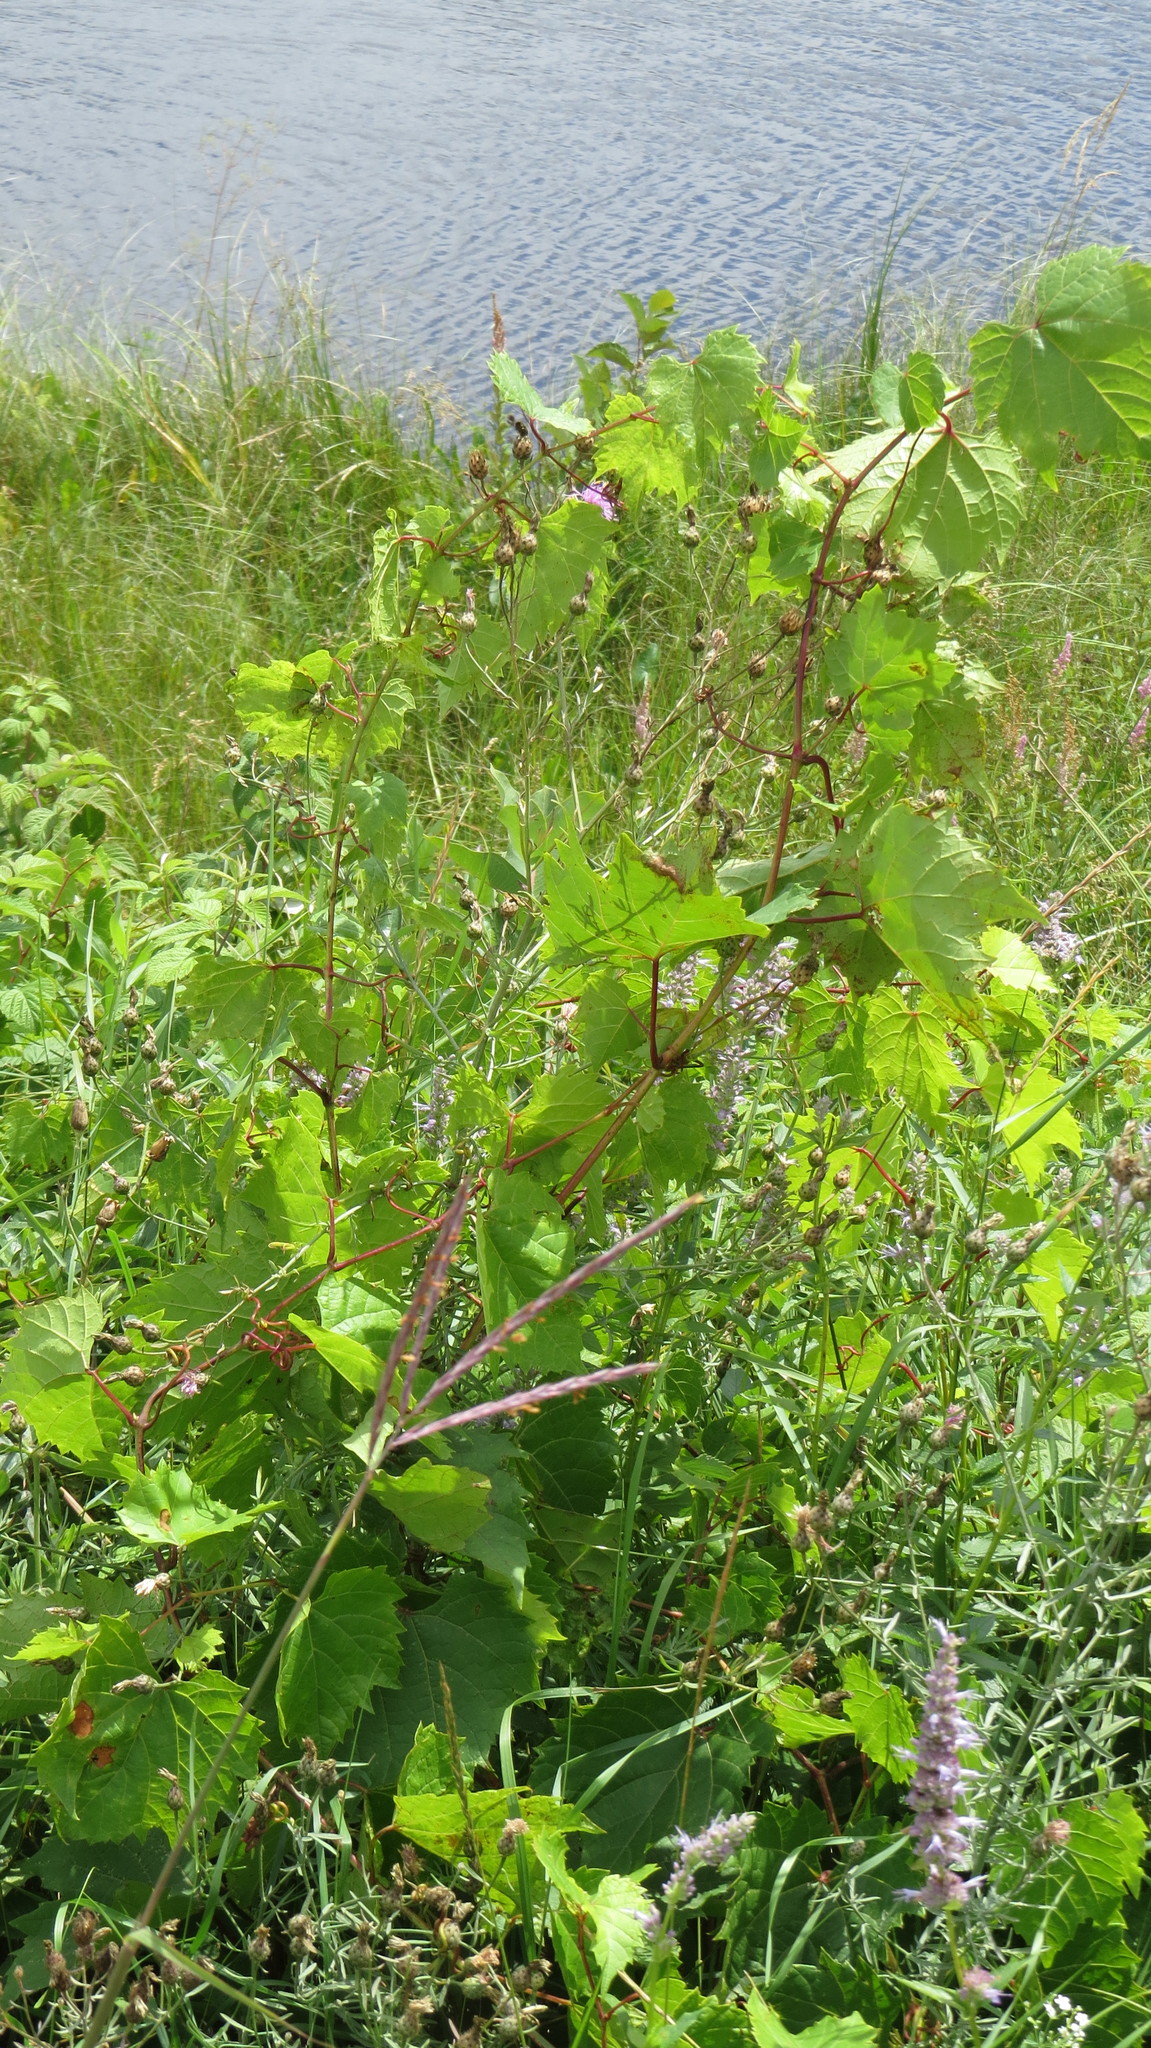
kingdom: Plantae
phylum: Tracheophyta
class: Magnoliopsida
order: Vitales
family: Vitaceae
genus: Vitis
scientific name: Vitis riparia
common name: Frost grape
